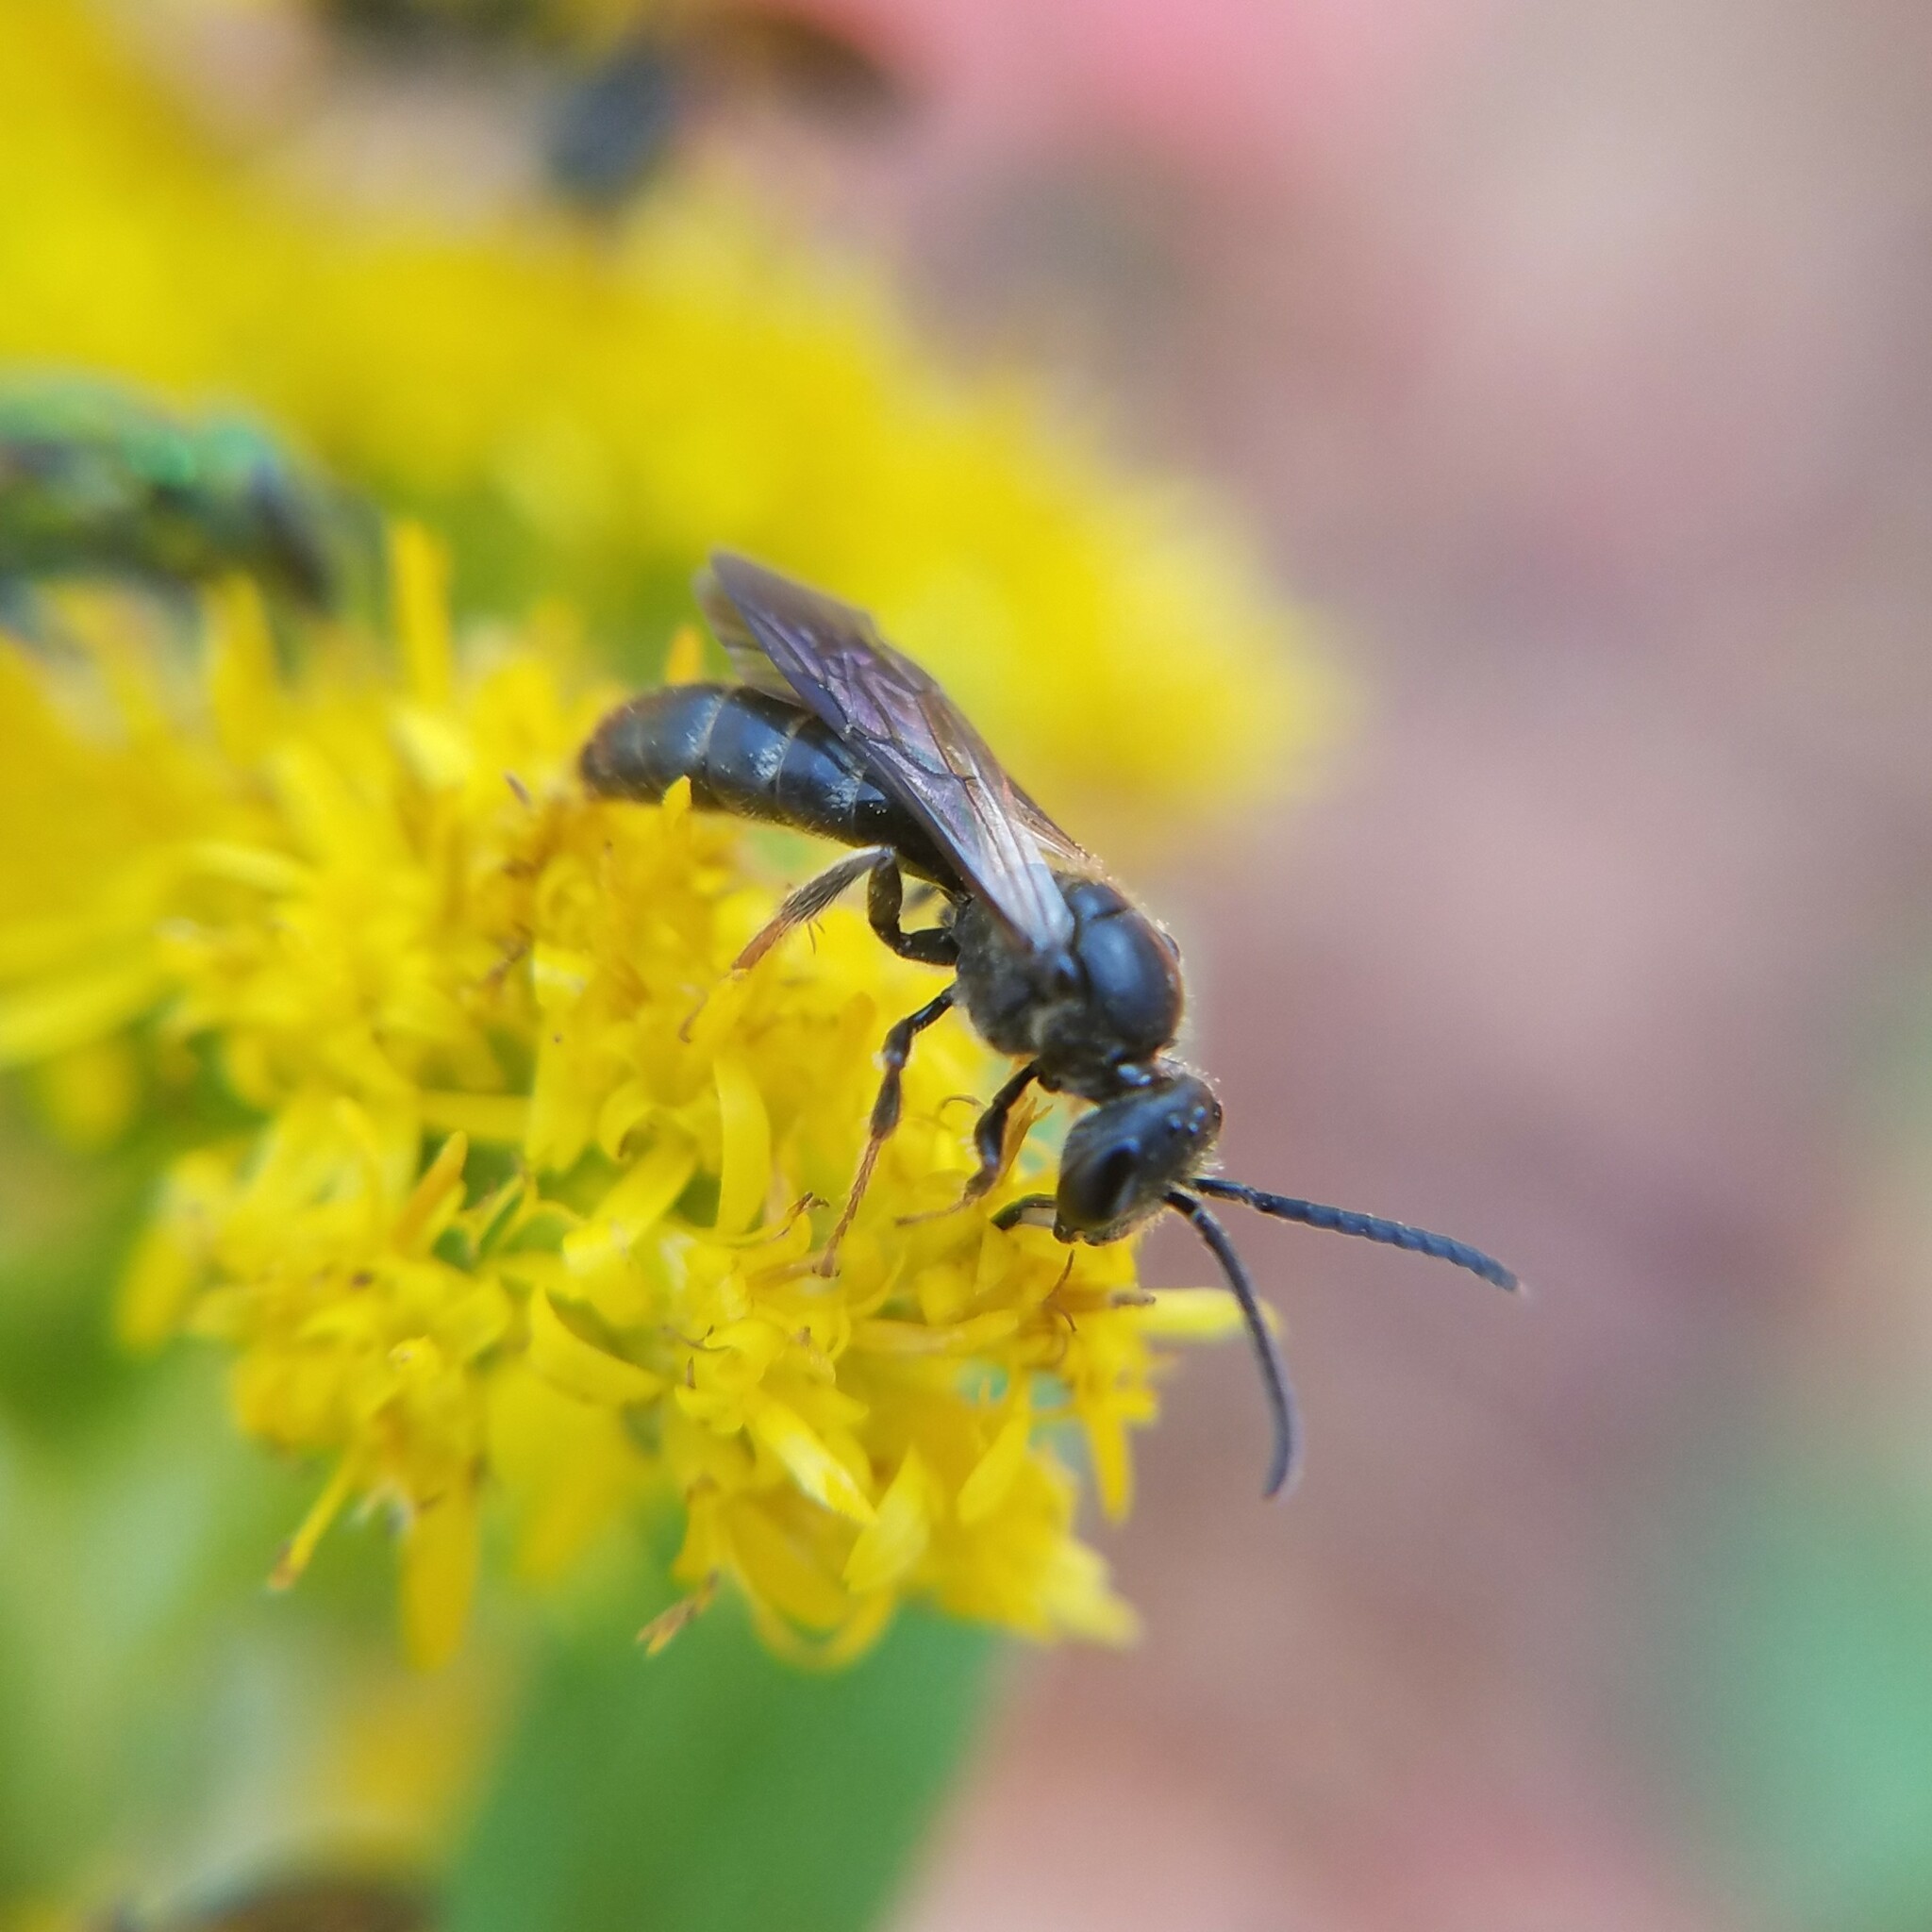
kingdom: Animalia
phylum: Arthropoda
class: Insecta
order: Hymenoptera
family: Halictidae
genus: Lasioglossum
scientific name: Lasioglossum fuscipenne
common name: Brown-winged sweat bee
